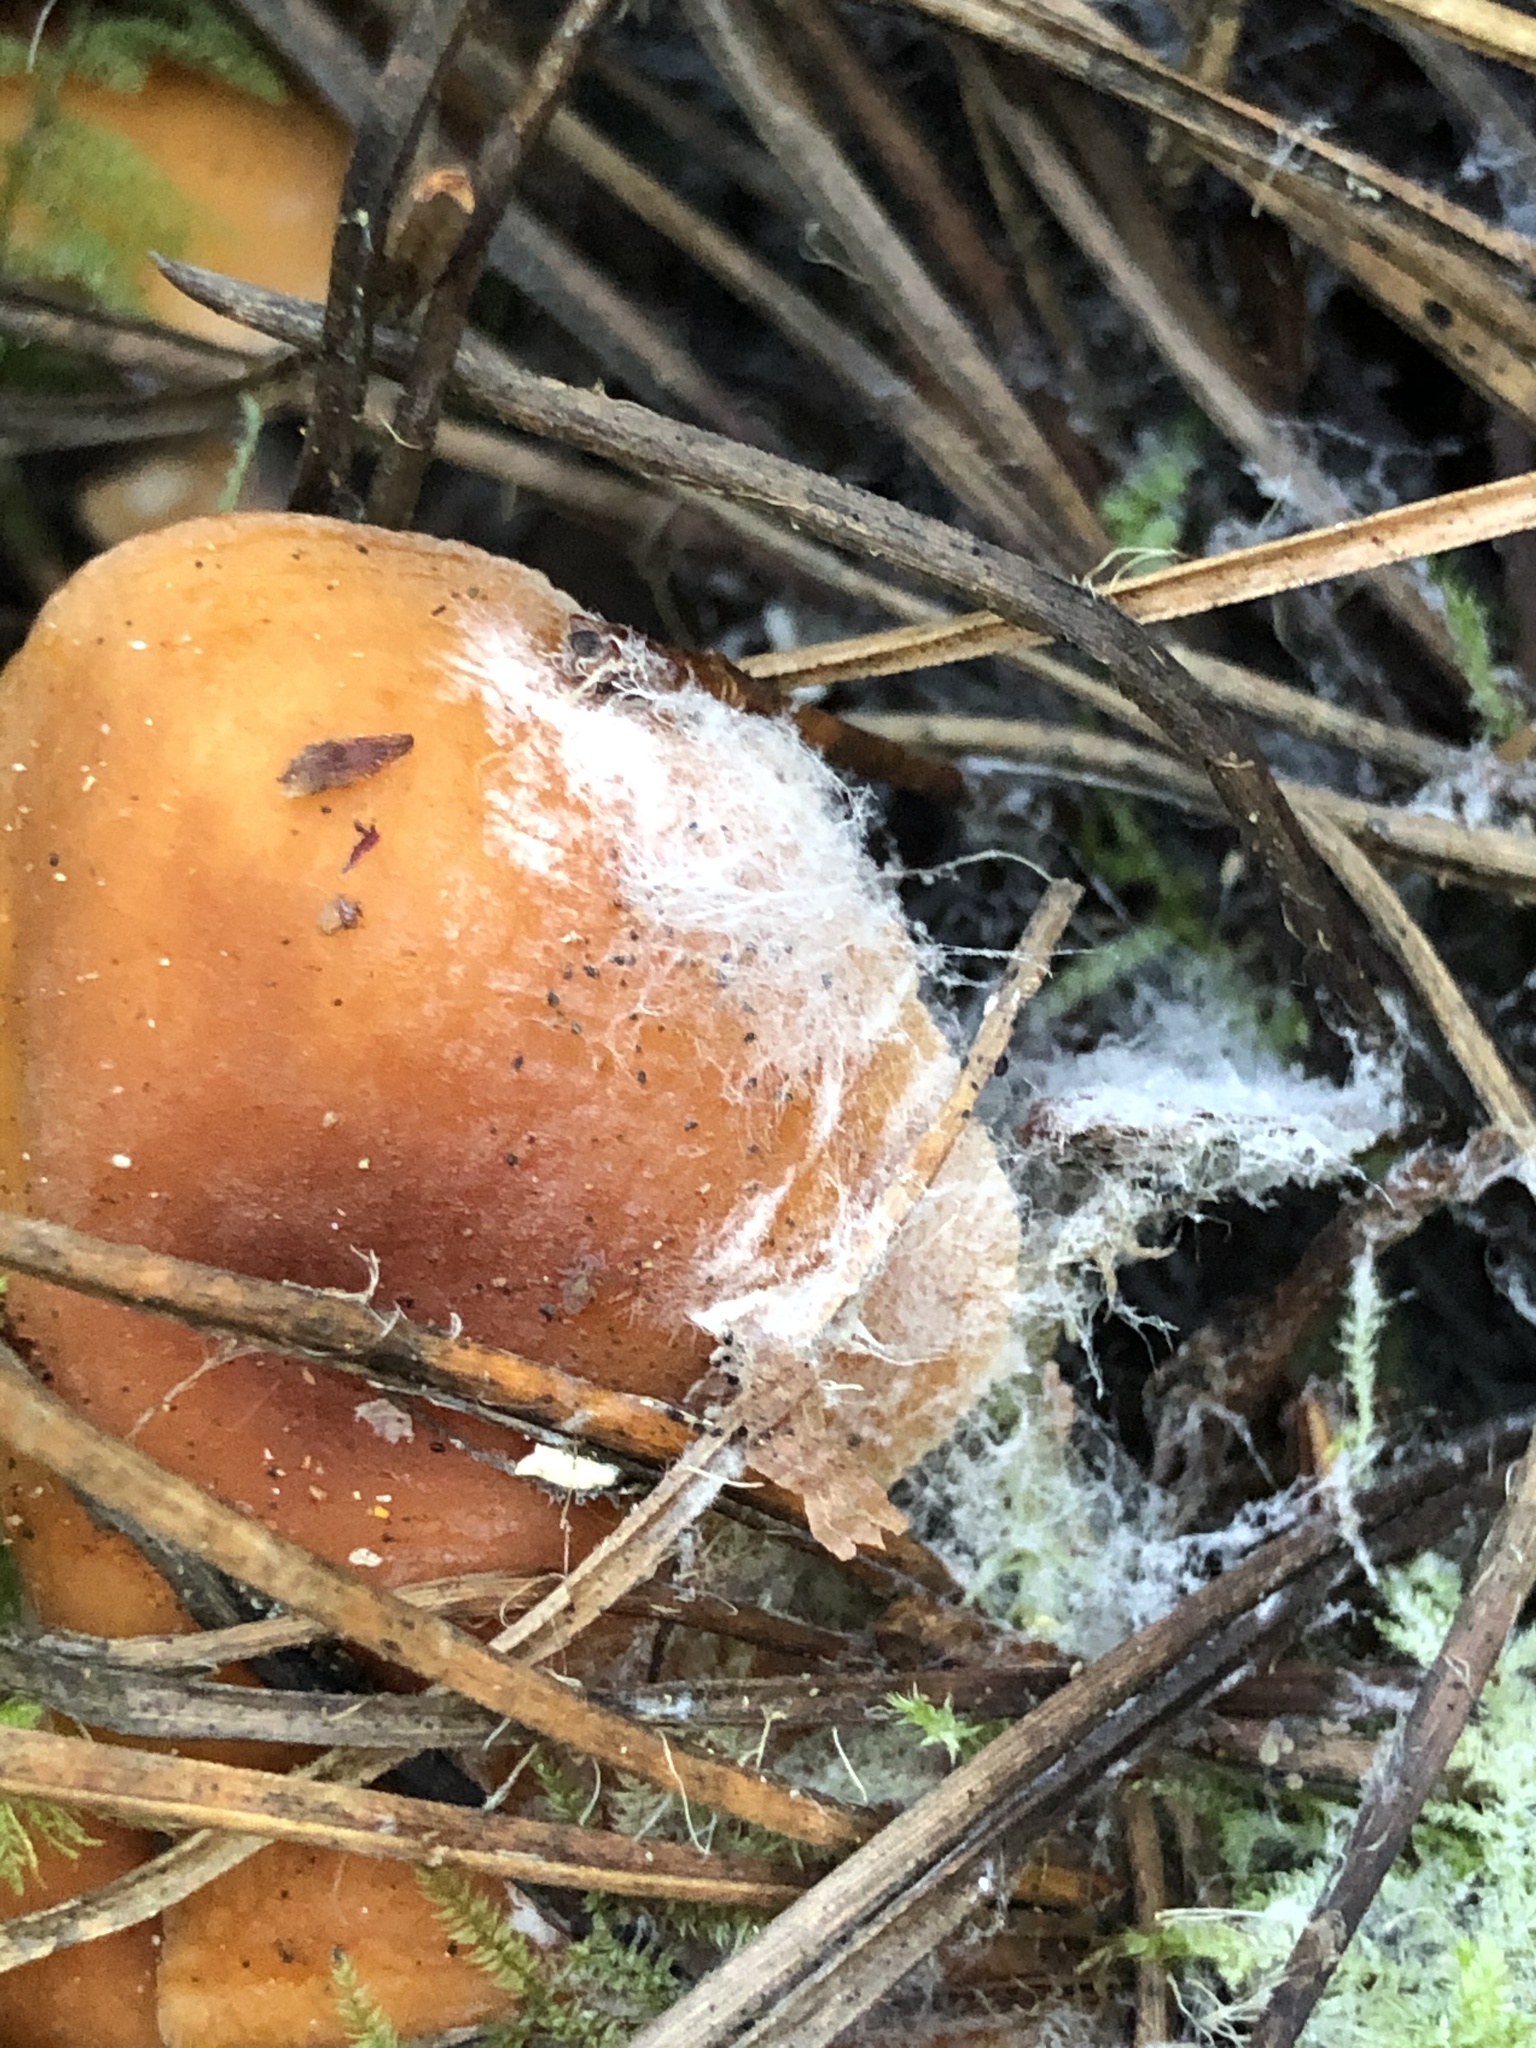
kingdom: Fungi
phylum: Basidiomycota
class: Agaricomycetes
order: Russulales
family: Russulaceae
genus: Lactarius
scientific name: Lactarius rubidus
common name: Candy cap
